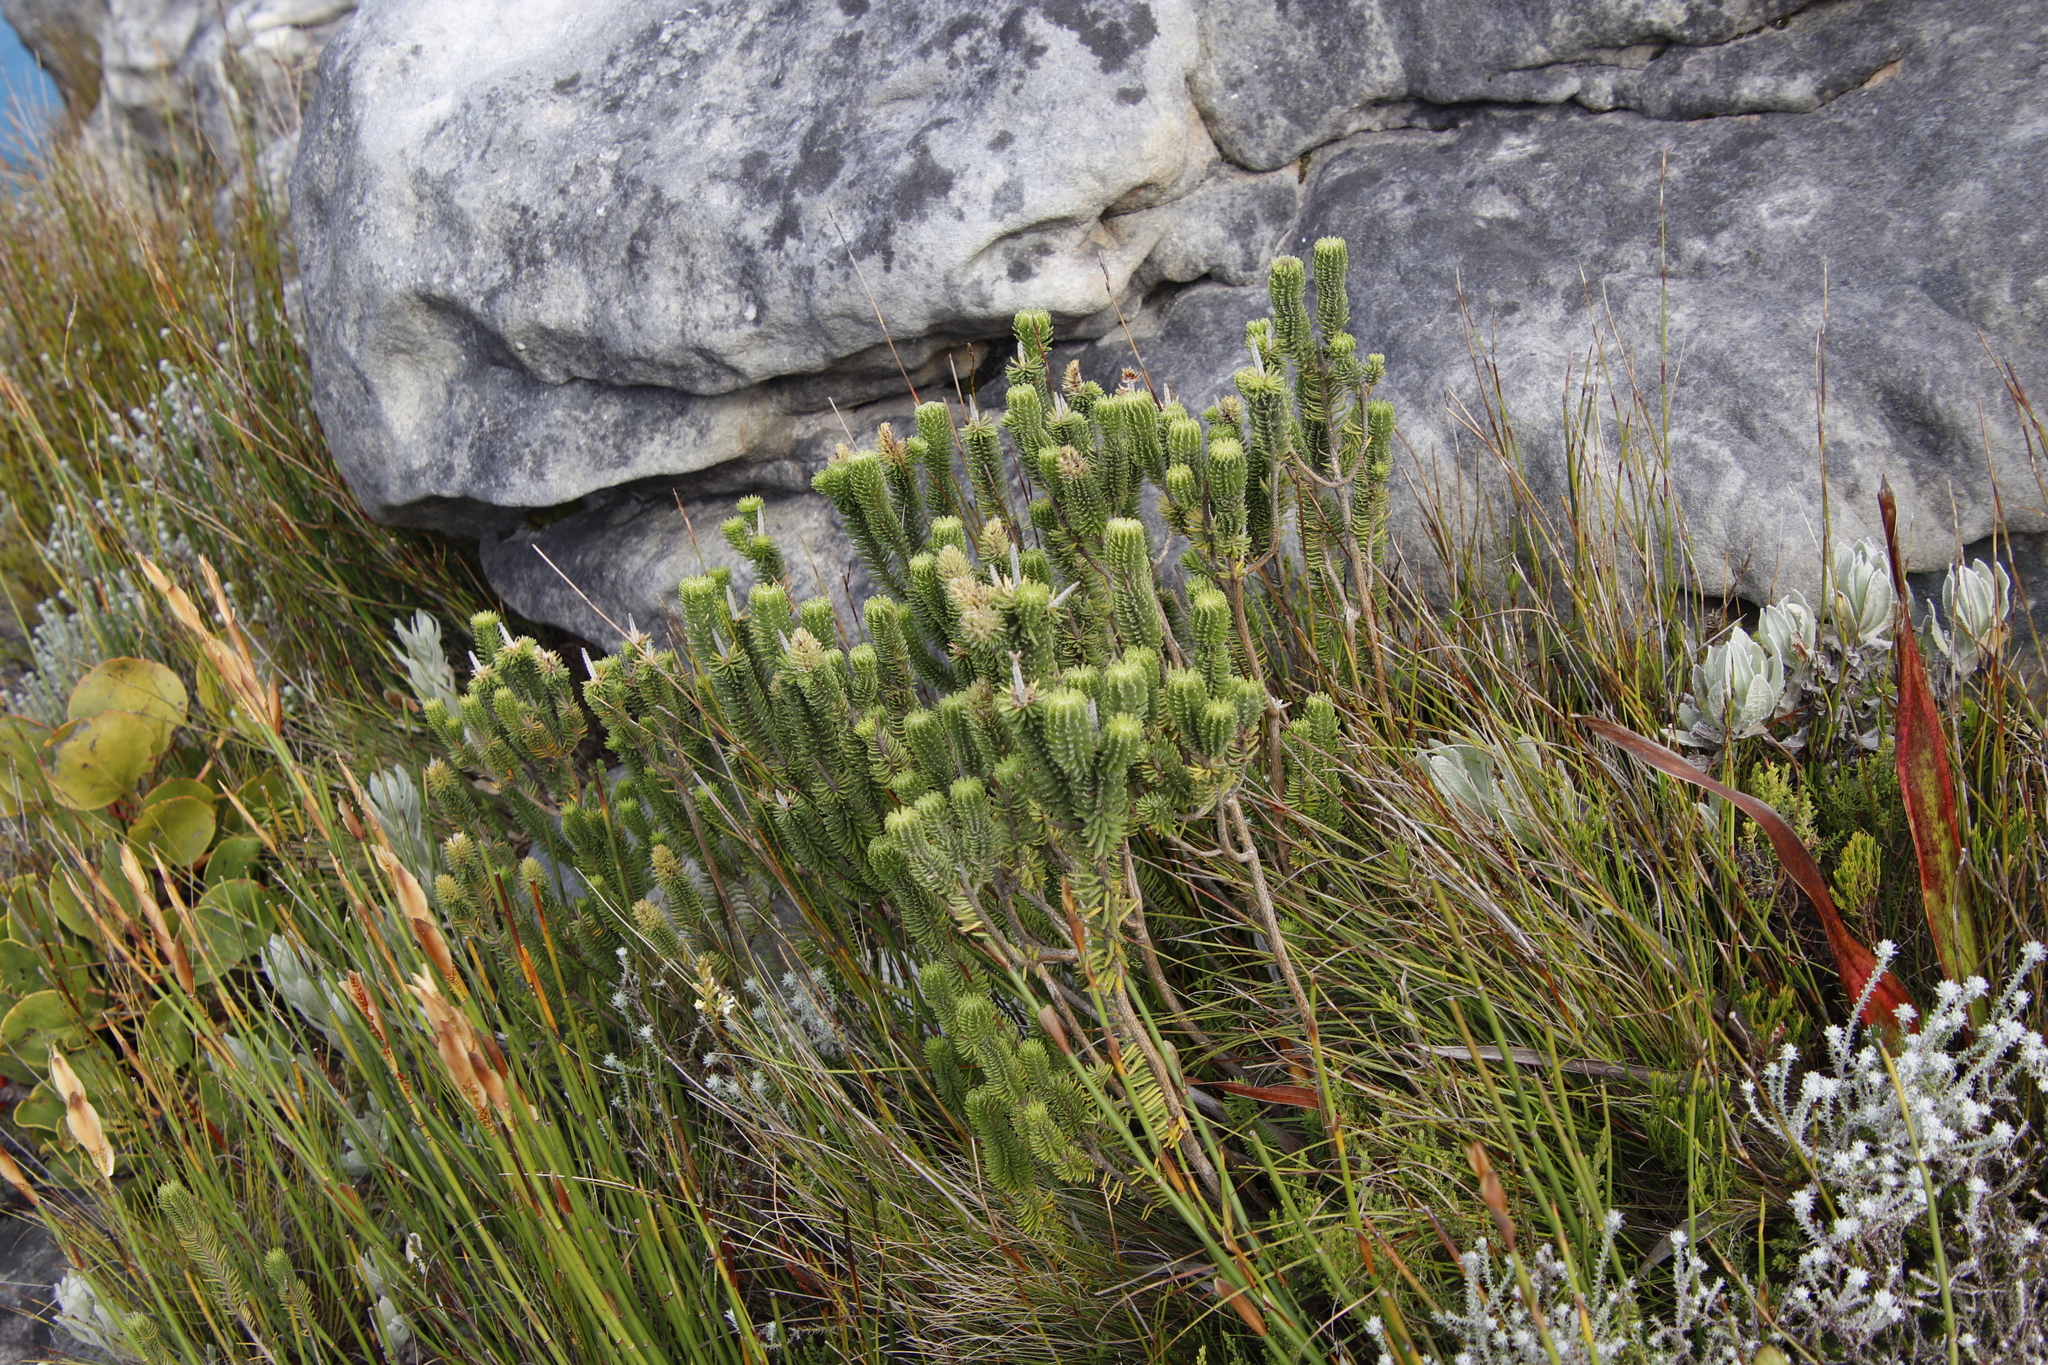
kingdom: Plantae
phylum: Tracheophyta
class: Magnoliopsida
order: Lamiales
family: Stilbaceae
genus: Stilbe
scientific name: Stilbe vestita
